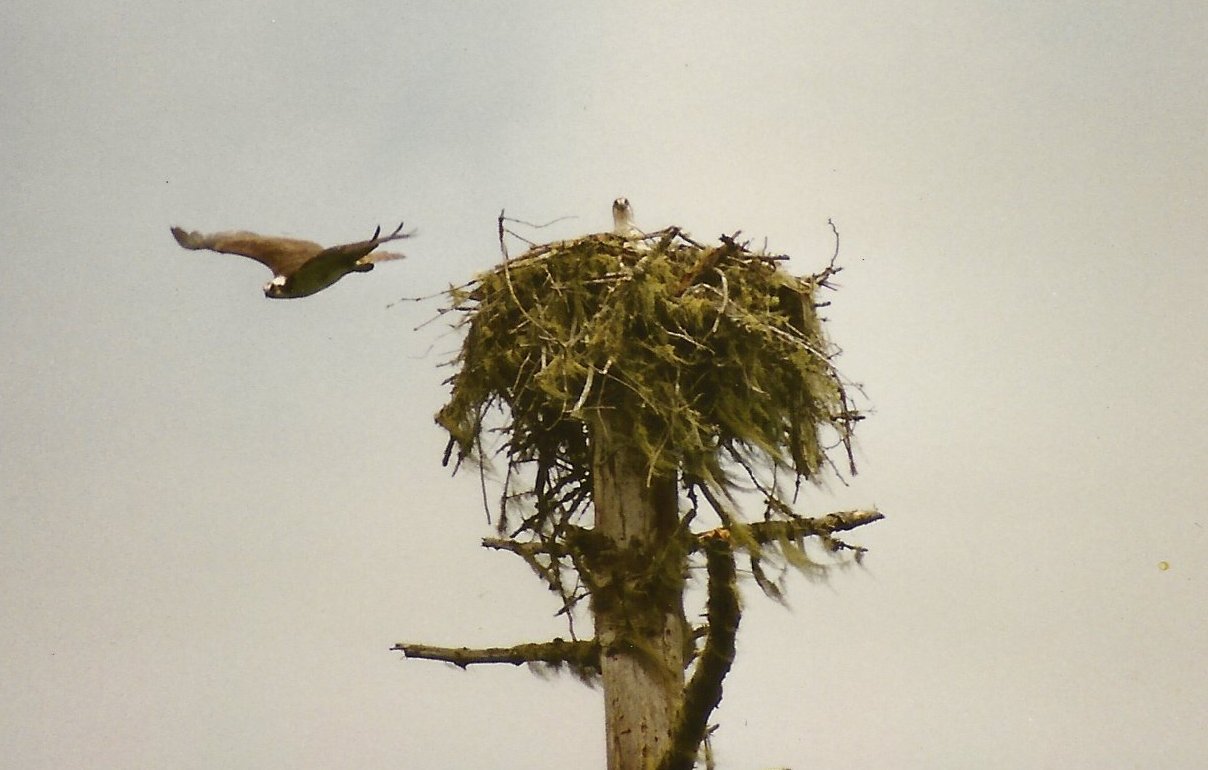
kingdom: Animalia
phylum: Chordata
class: Aves
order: Accipitriformes
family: Pandionidae
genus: Pandion
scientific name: Pandion haliaetus
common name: Osprey
